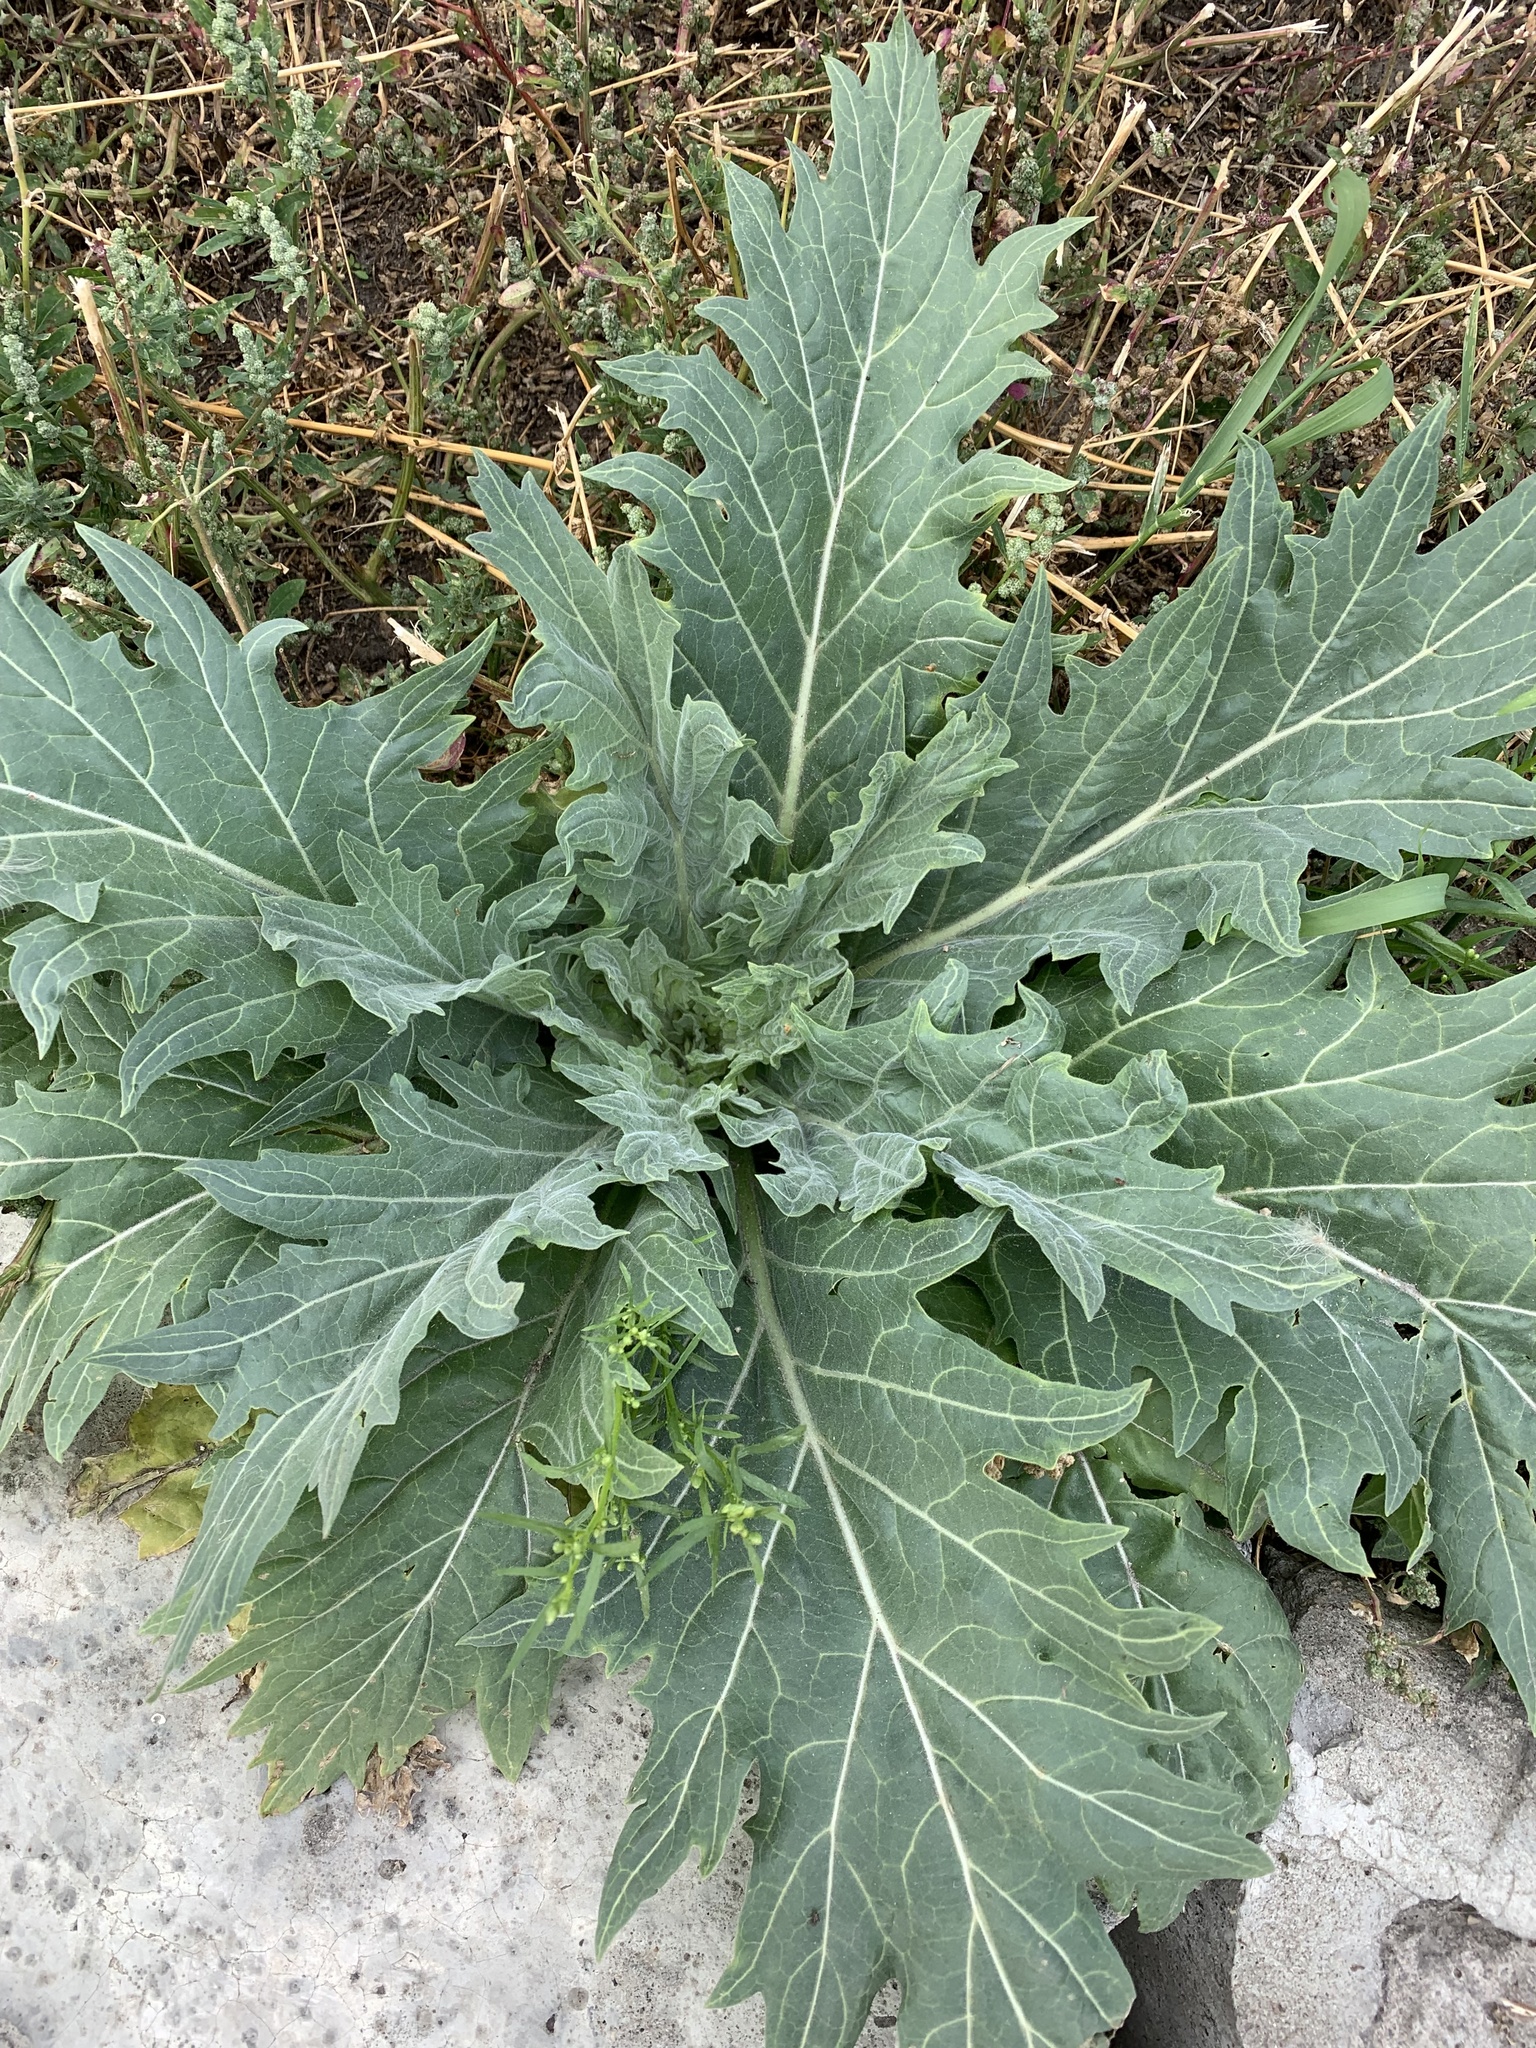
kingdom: Plantae
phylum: Tracheophyta
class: Magnoliopsida
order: Solanales
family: Solanaceae
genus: Hyoscyamus
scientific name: Hyoscyamus niger
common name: Henbane
